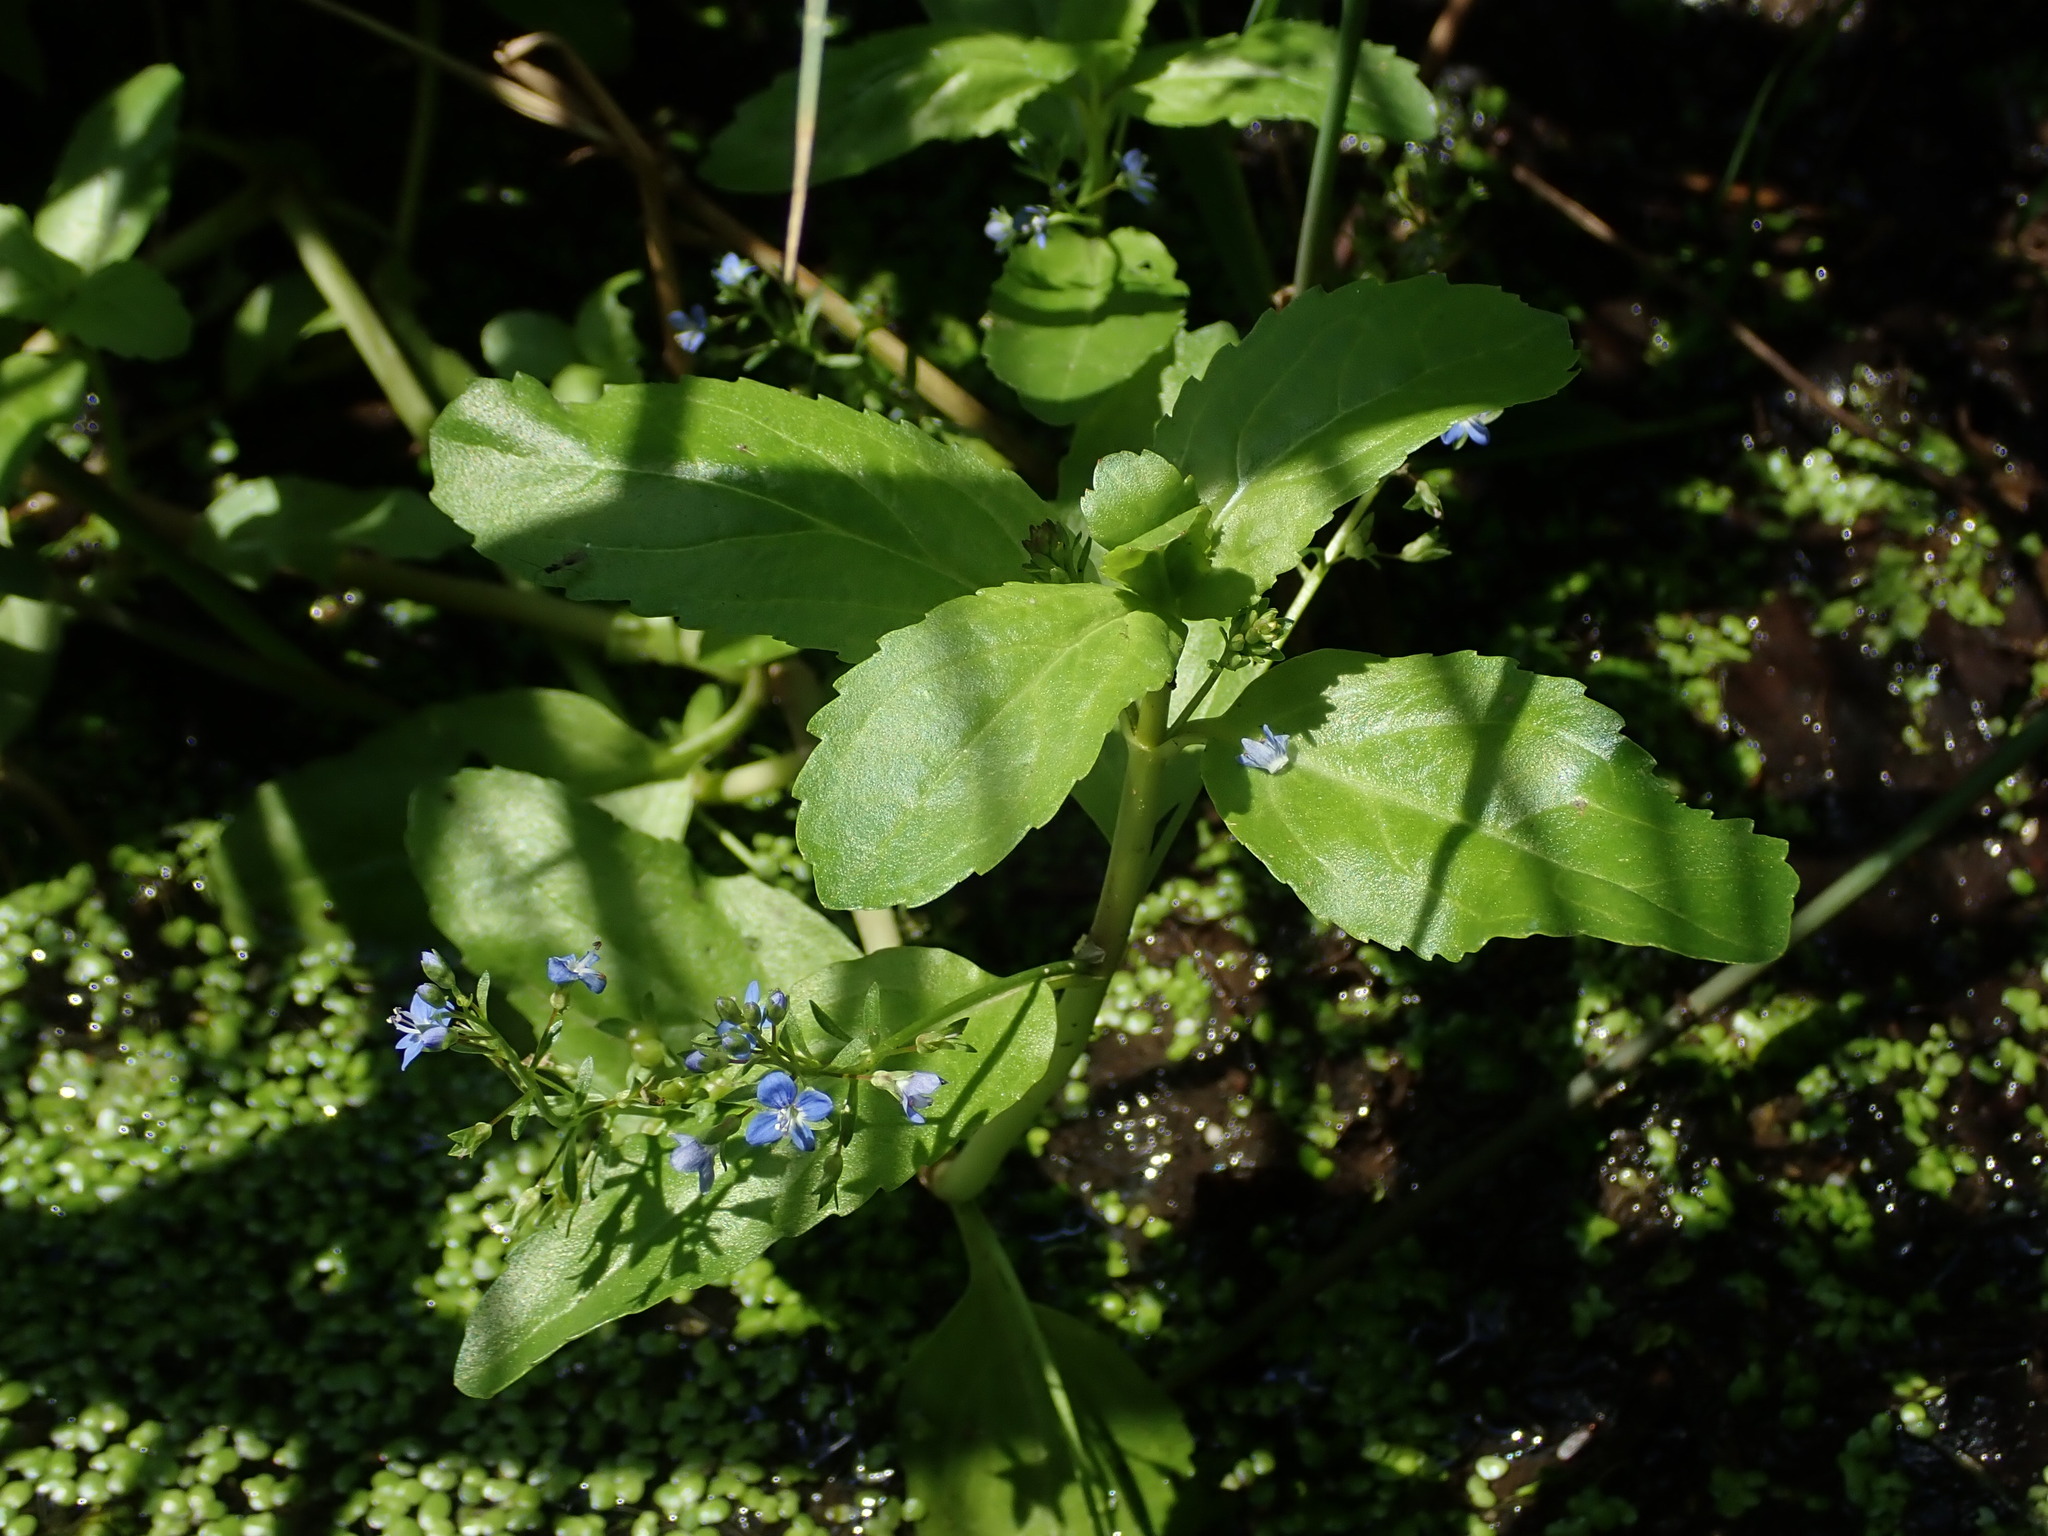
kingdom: Plantae
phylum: Tracheophyta
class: Magnoliopsida
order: Lamiales
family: Plantaginaceae
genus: Veronica
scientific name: Veronica beccabunga
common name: Brooklime
